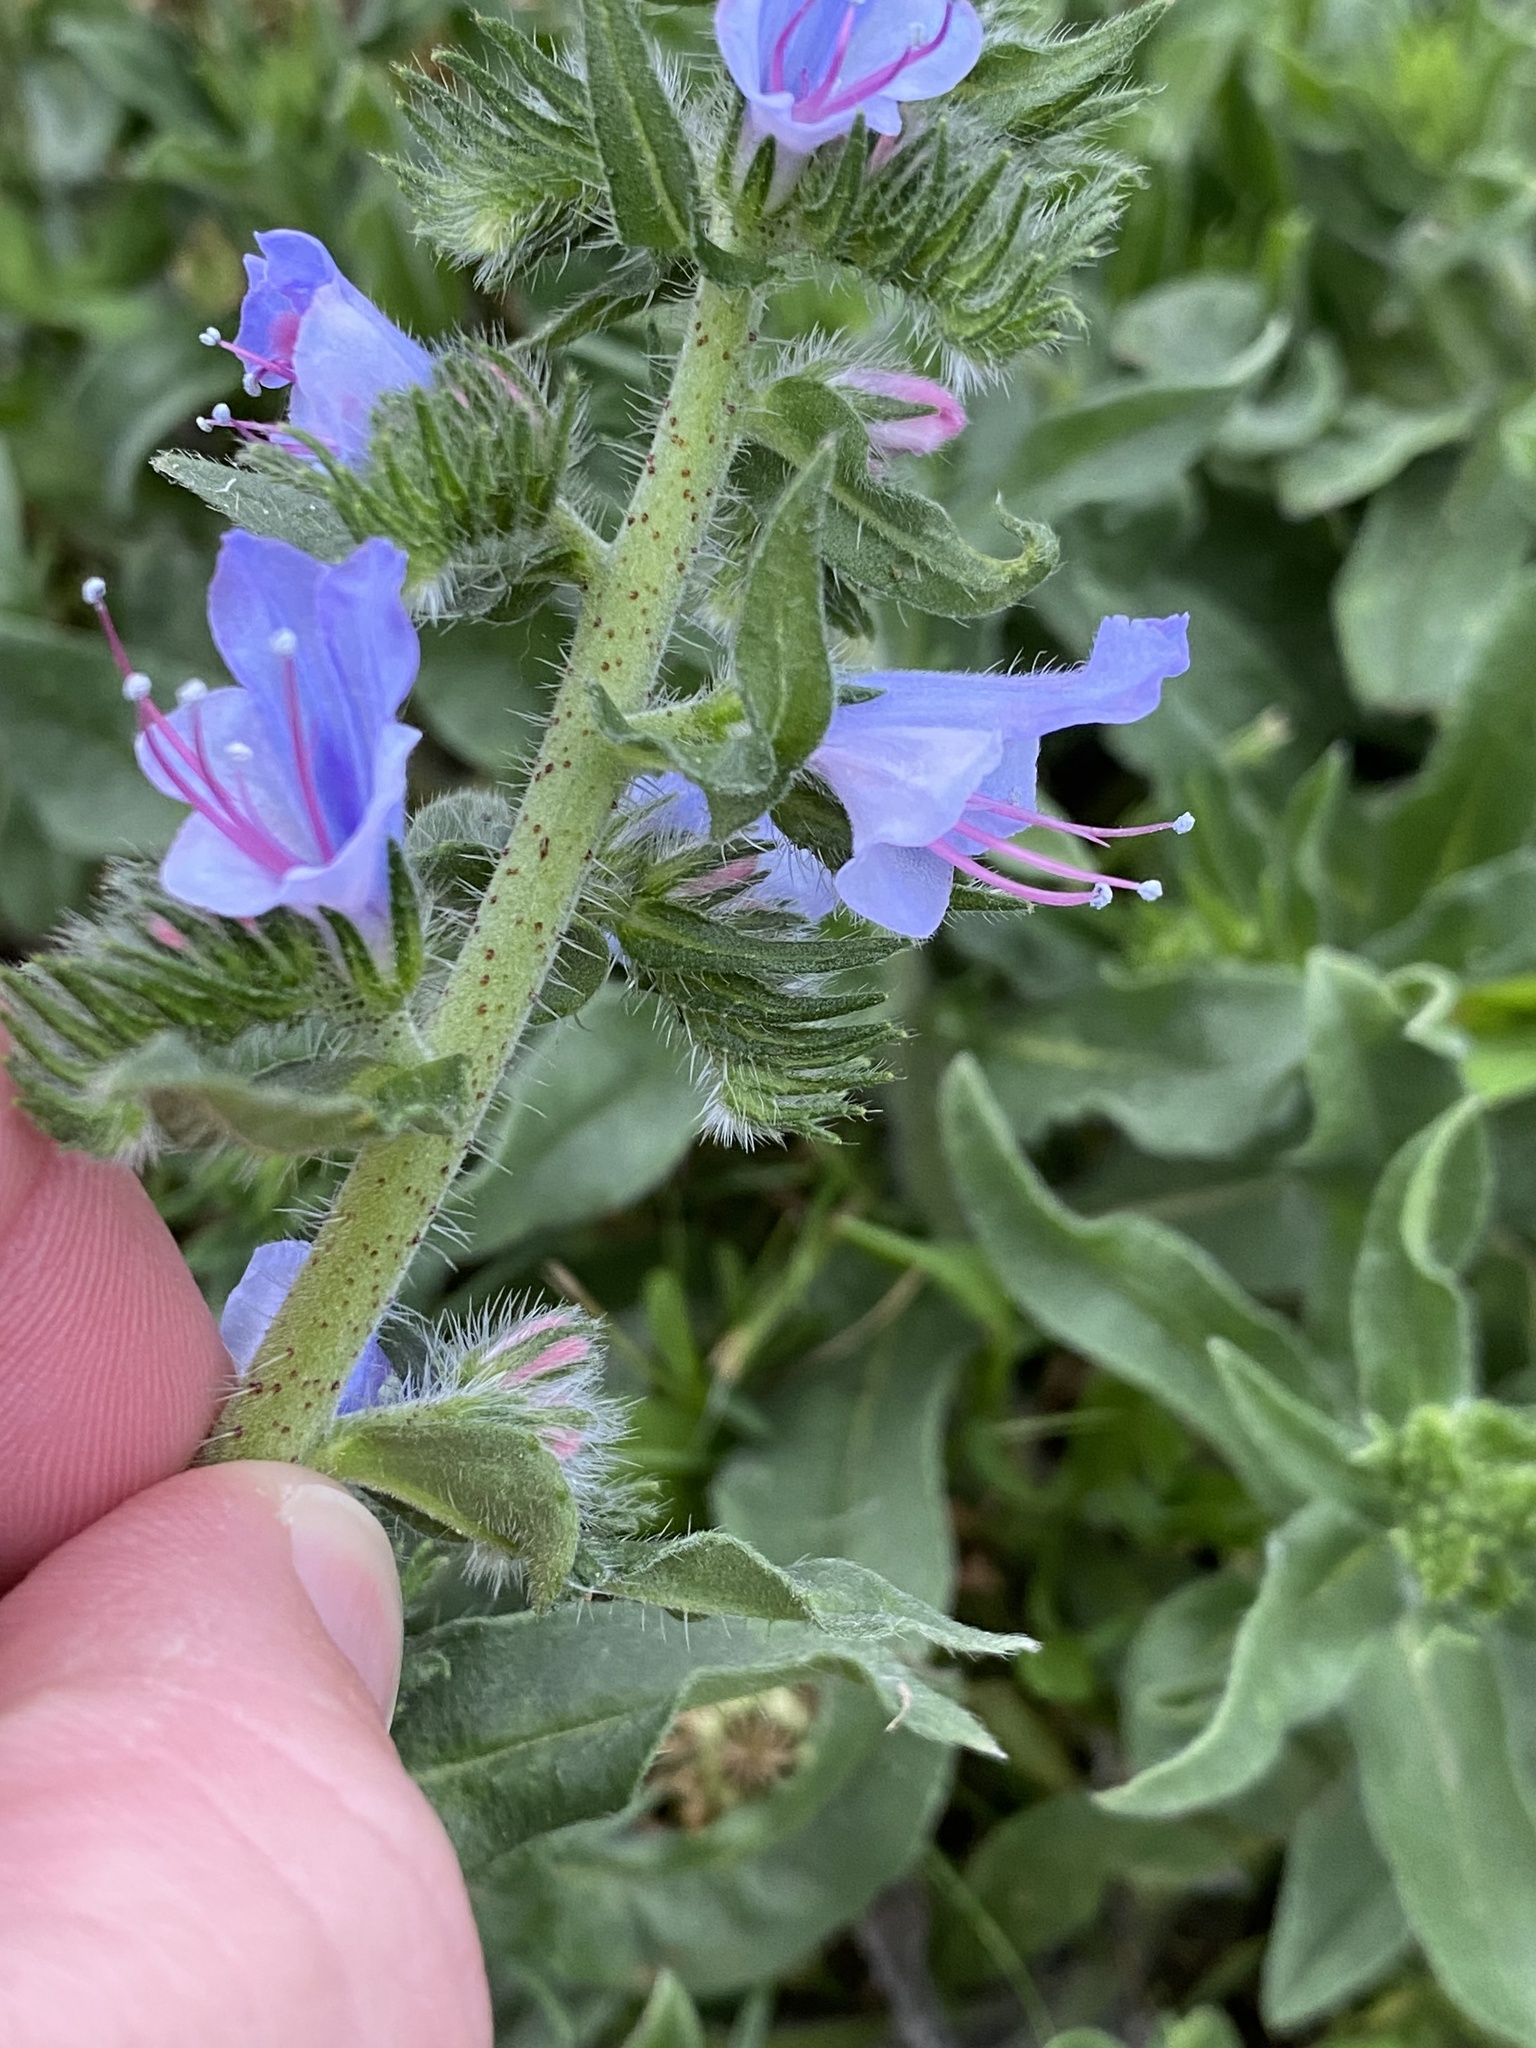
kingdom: Plantae
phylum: Tracheophyta
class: Magnoliopsida
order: Boraginales
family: Boraginaceae
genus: Echium
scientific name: Echium vulgare
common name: Common viper's bugloss
